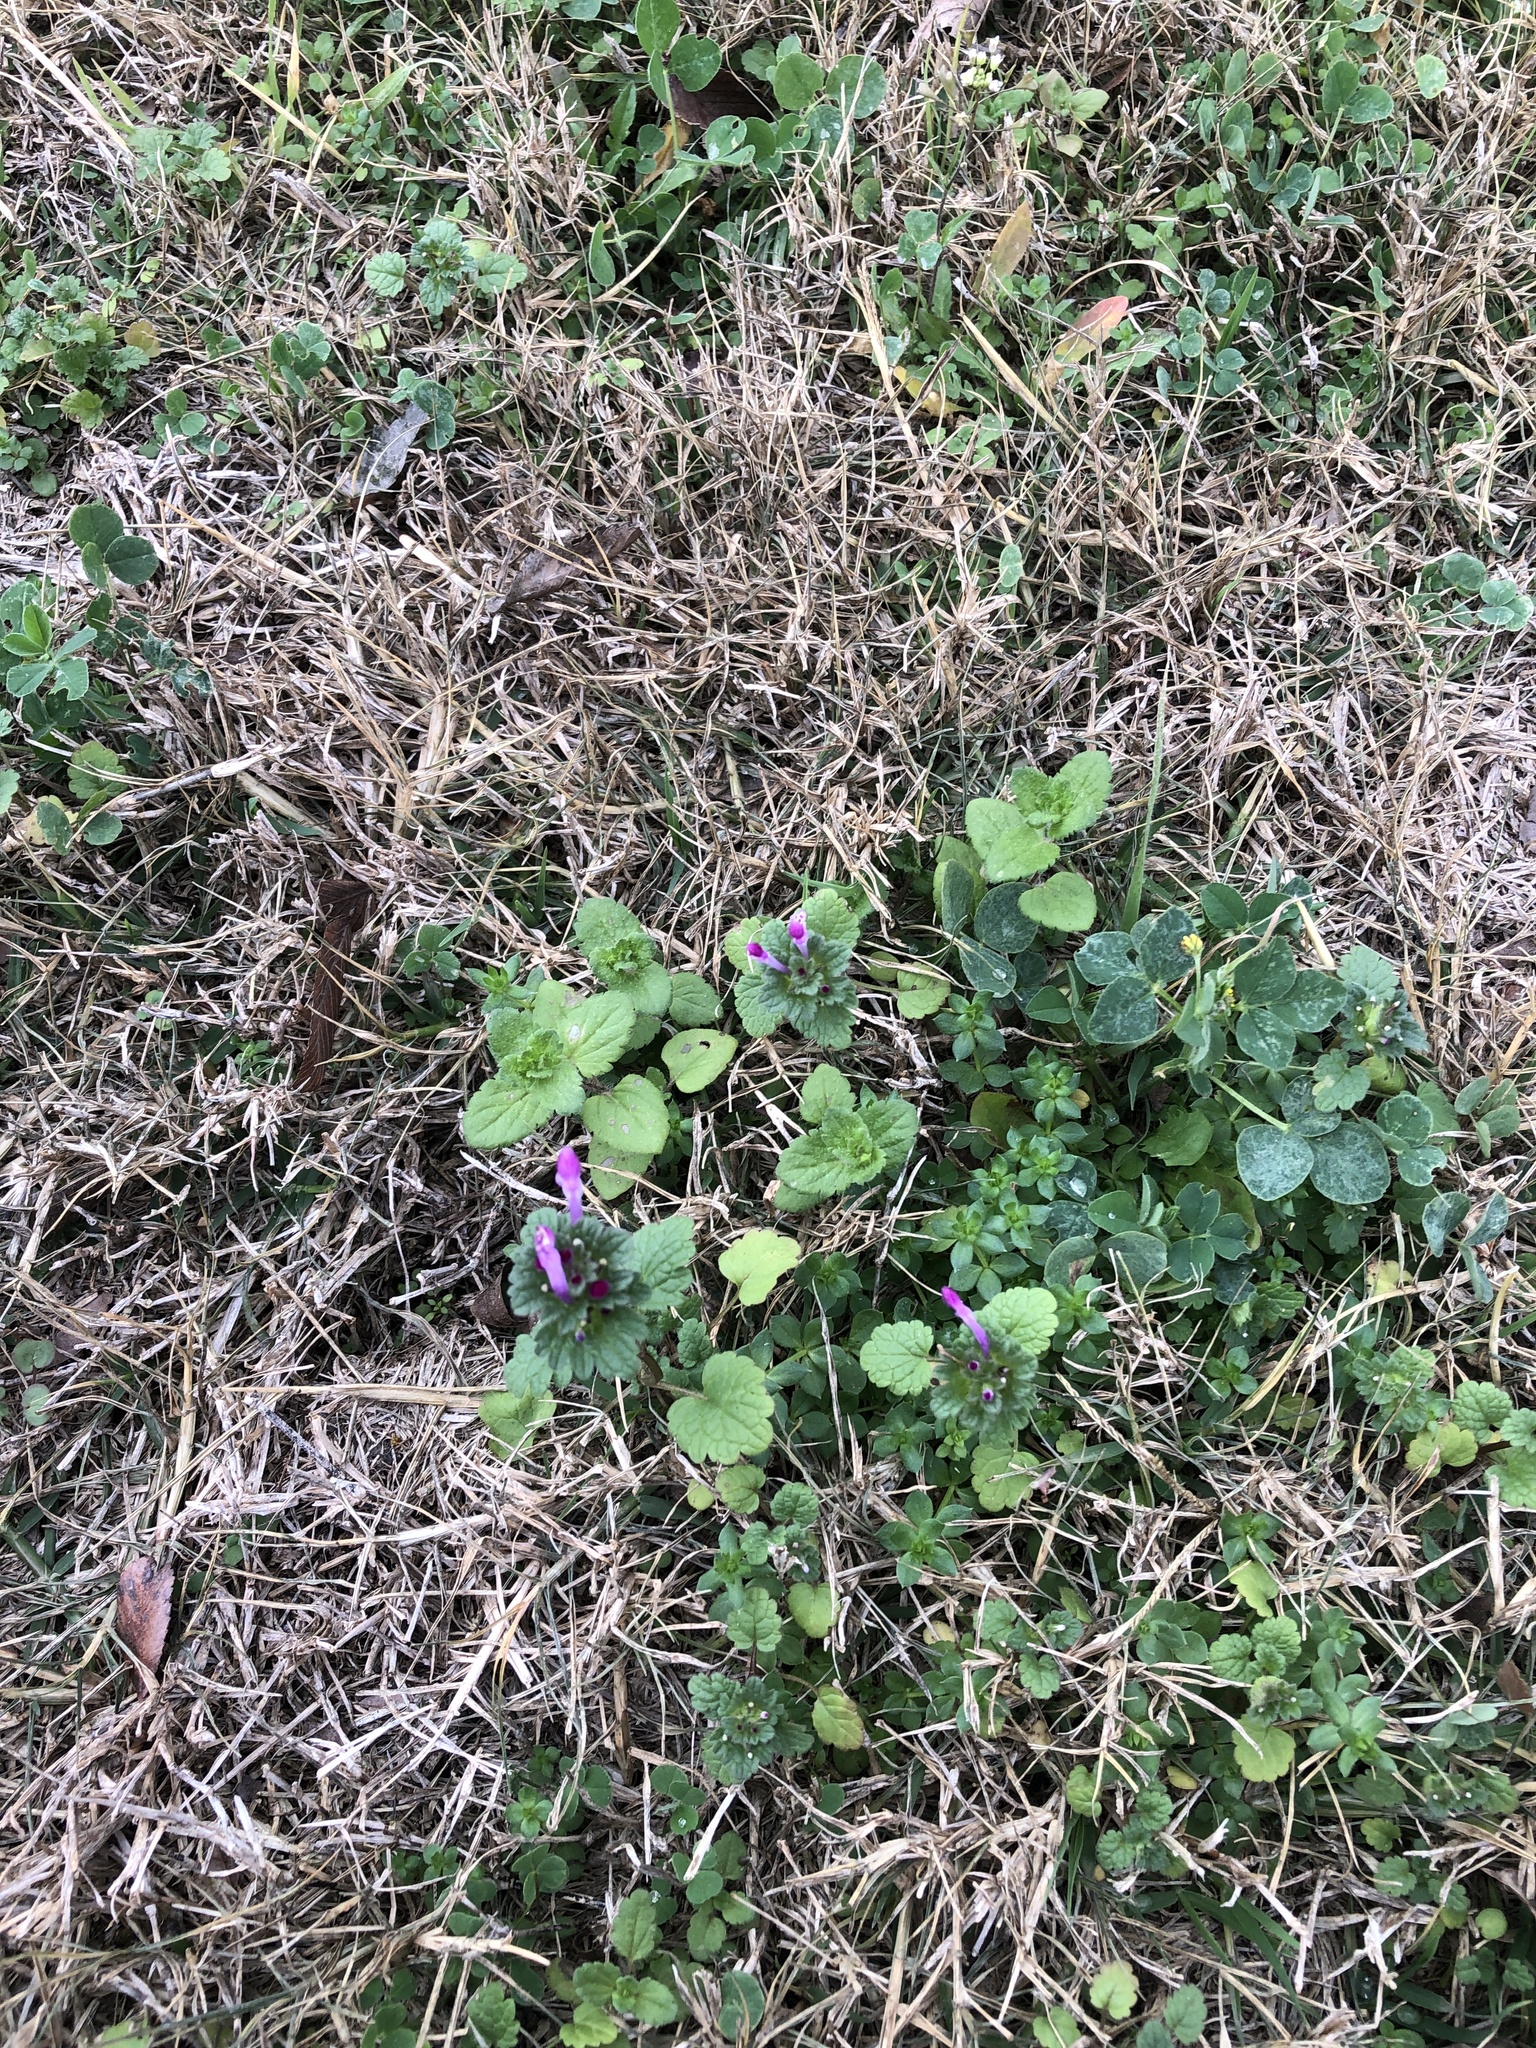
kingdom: Plantae
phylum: Tracheophyta
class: Magnoliopsida
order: Lamiales
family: Lamiaceae
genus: Lamium
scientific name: Lamium amplexicaule
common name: Henbit dead-nettle
